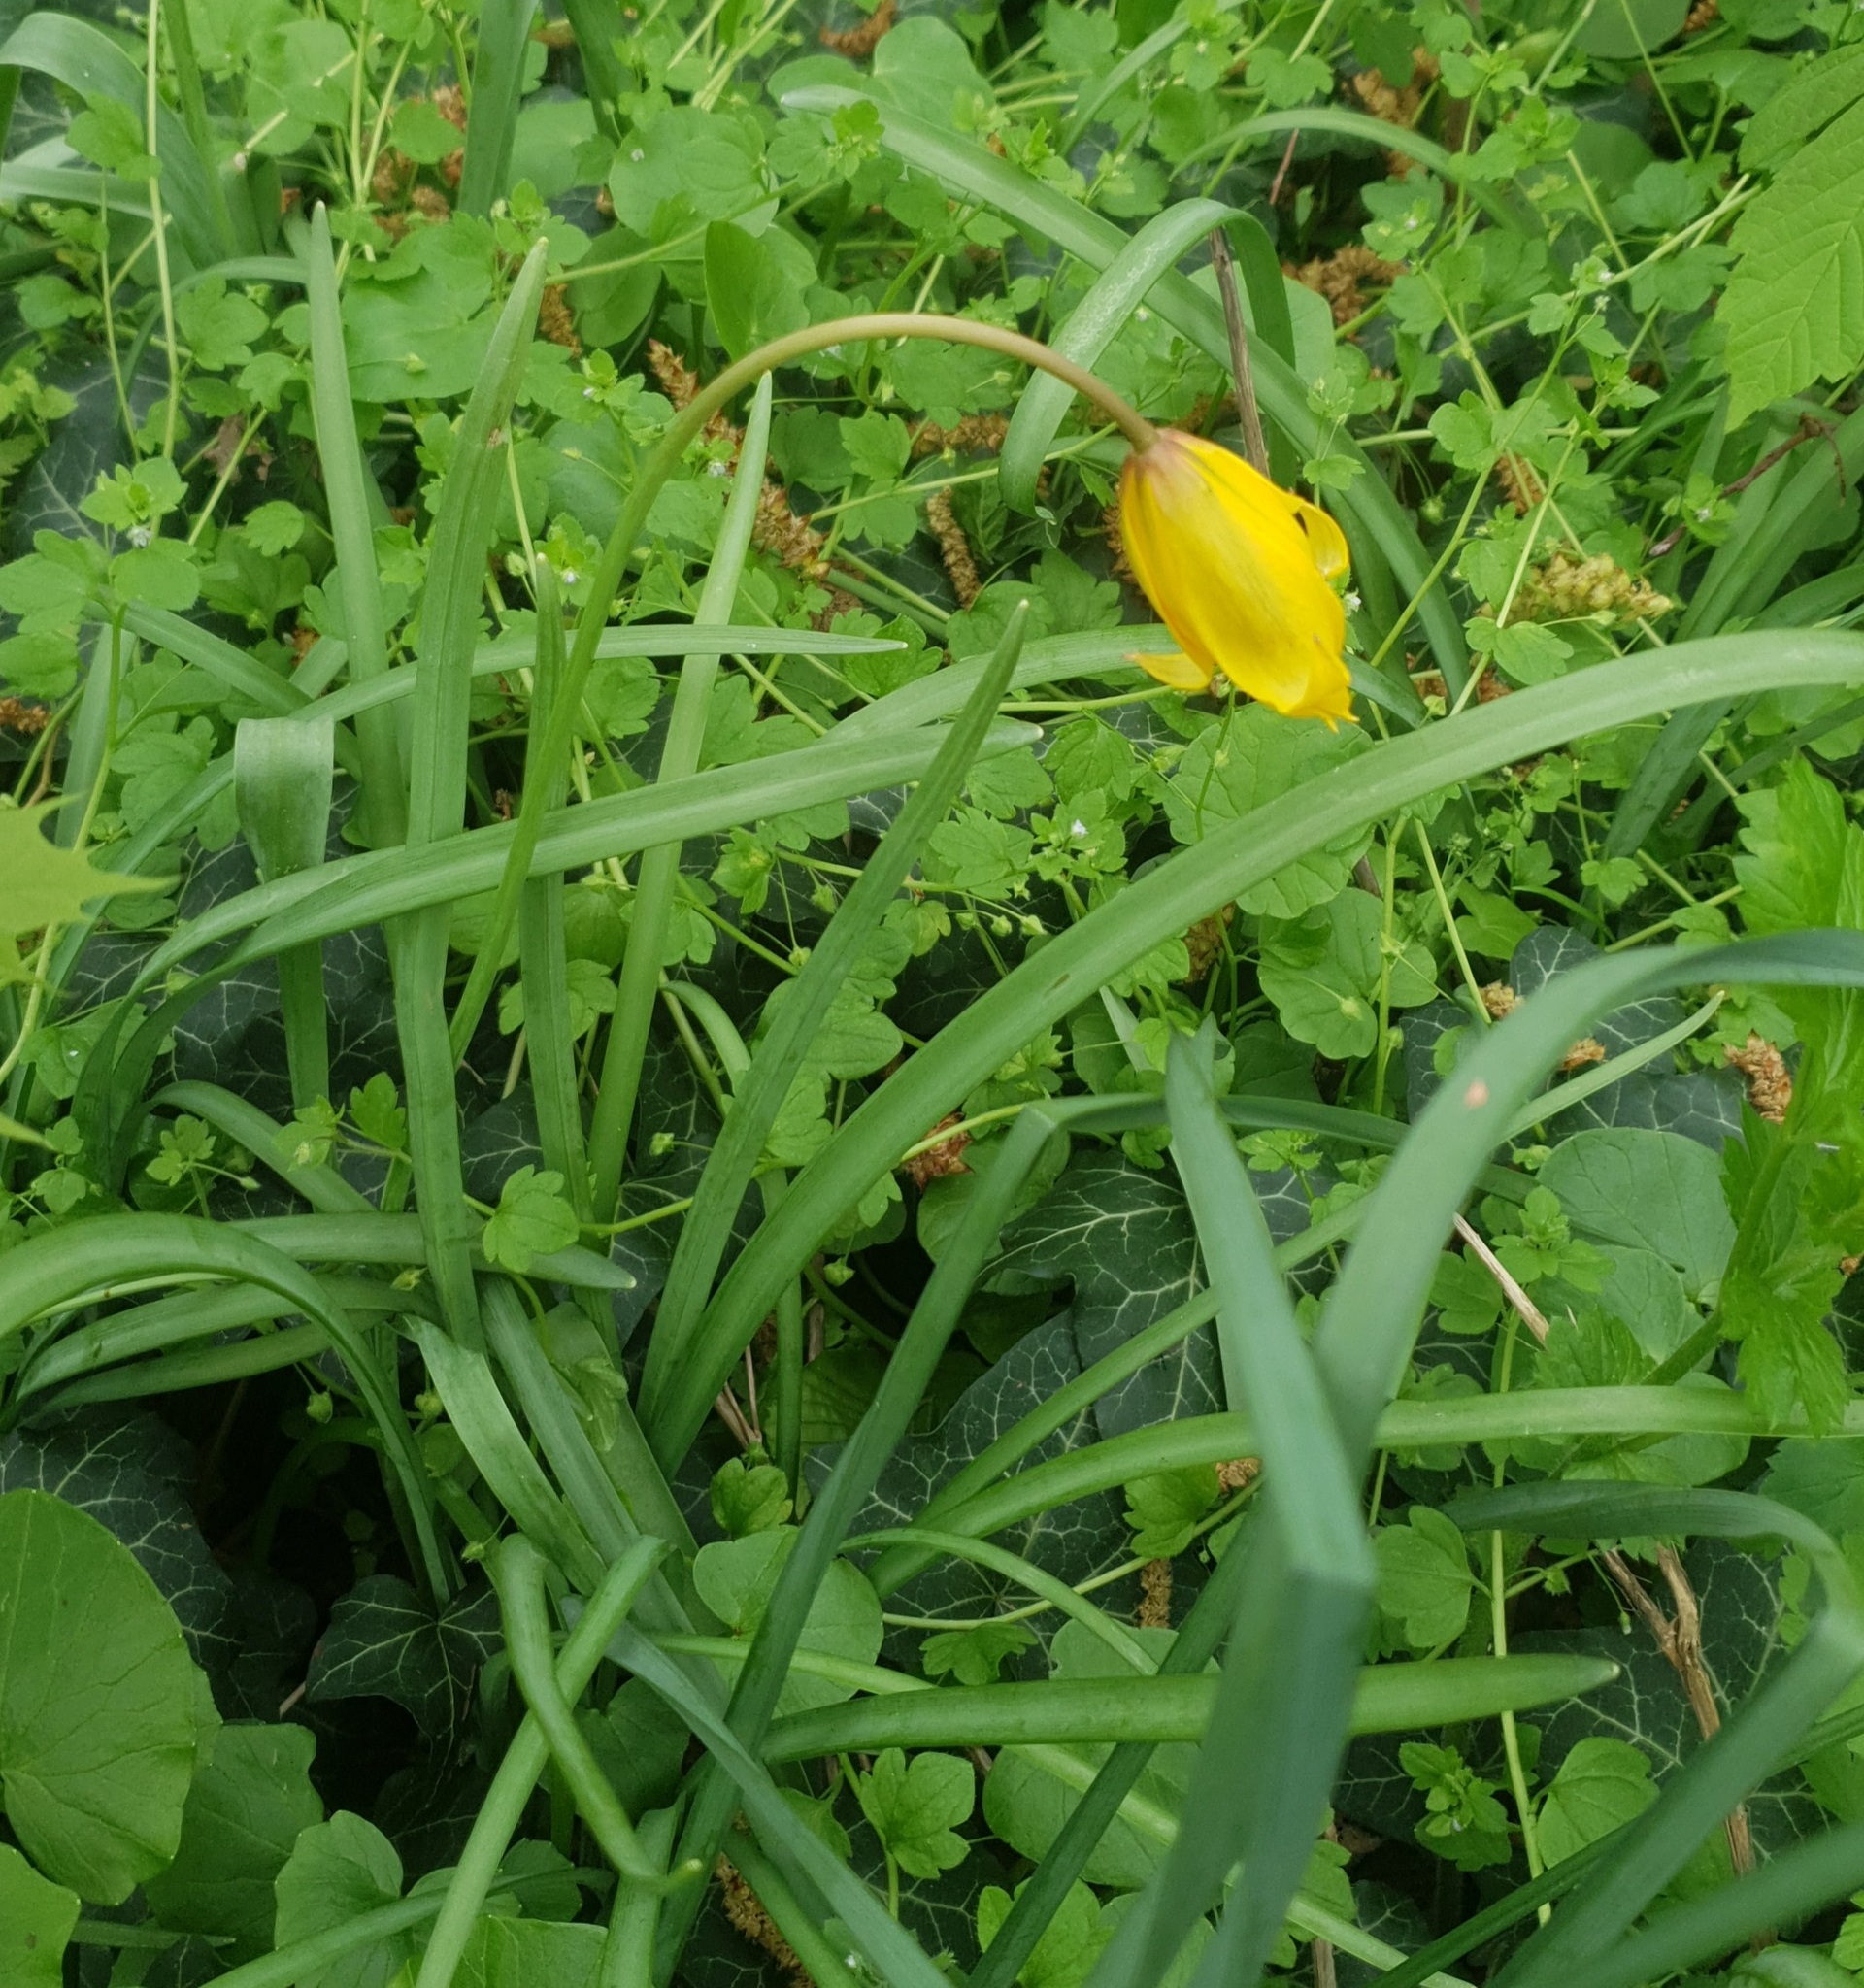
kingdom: Plantae
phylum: Tracheophyta
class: Liliopsida
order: Liliales
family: Liliaceae
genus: Tulipa
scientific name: Tulipa sylvestris
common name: Wild tulip
